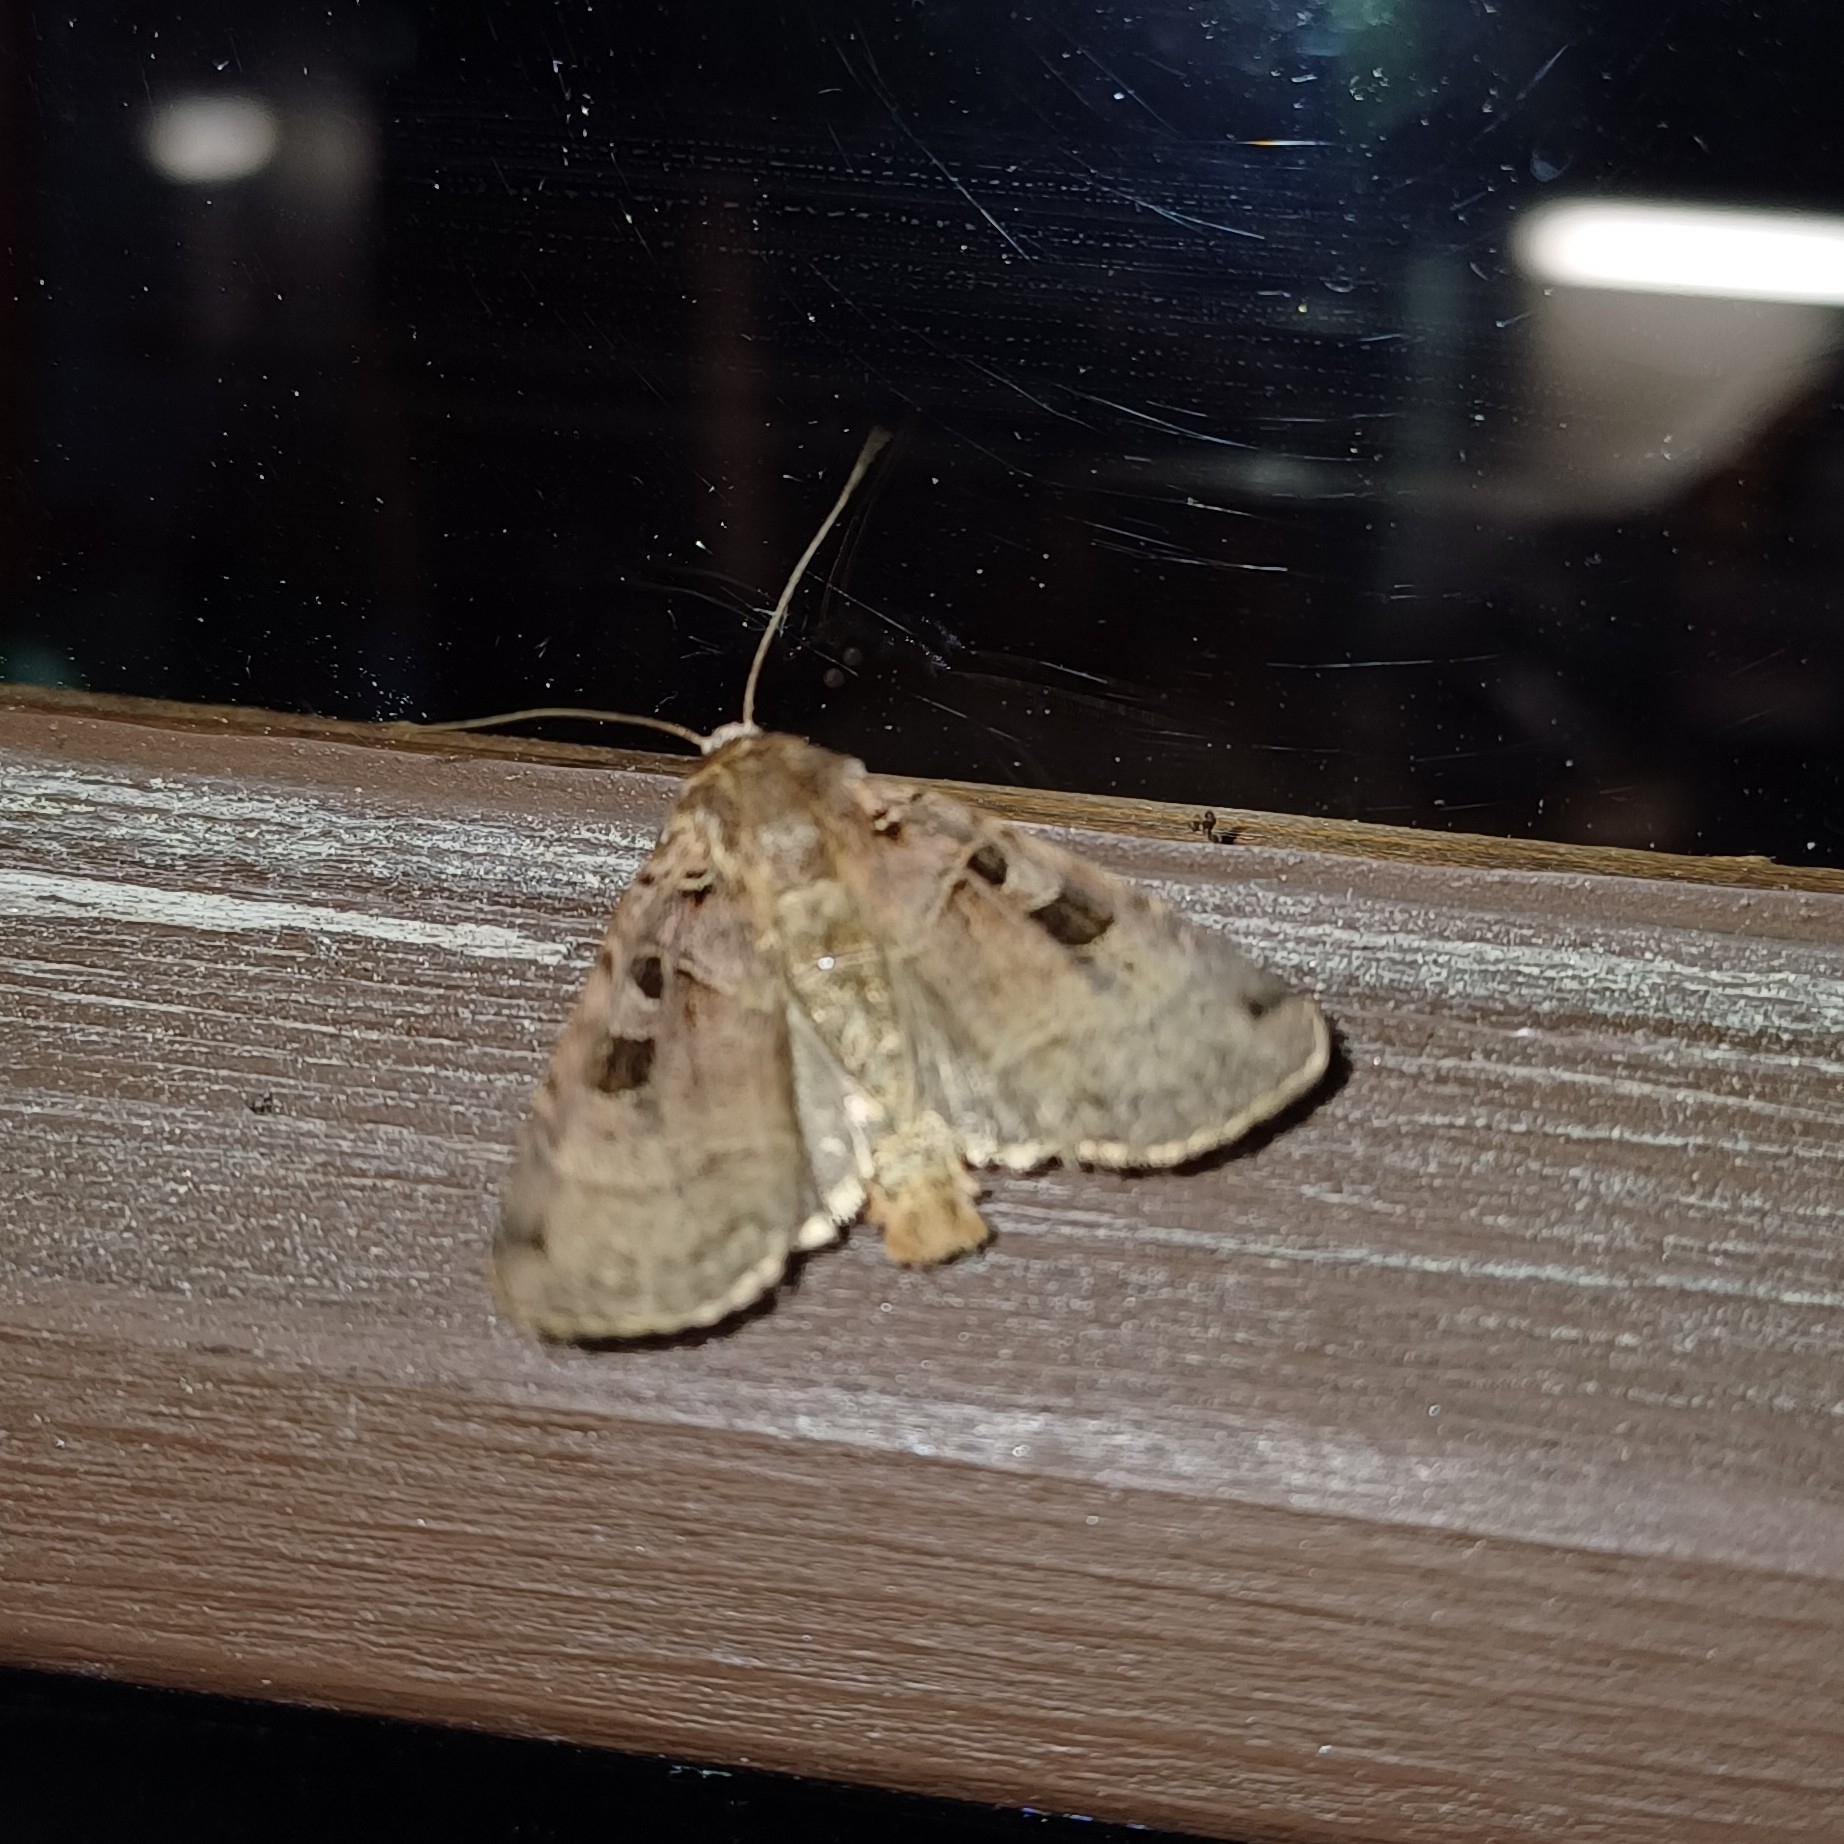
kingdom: Animalia
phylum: Arthropoda
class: Insecta
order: Lepidoptera
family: Noctuidae
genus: Xestia
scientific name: Xestia triangulum
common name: Double square-spot
